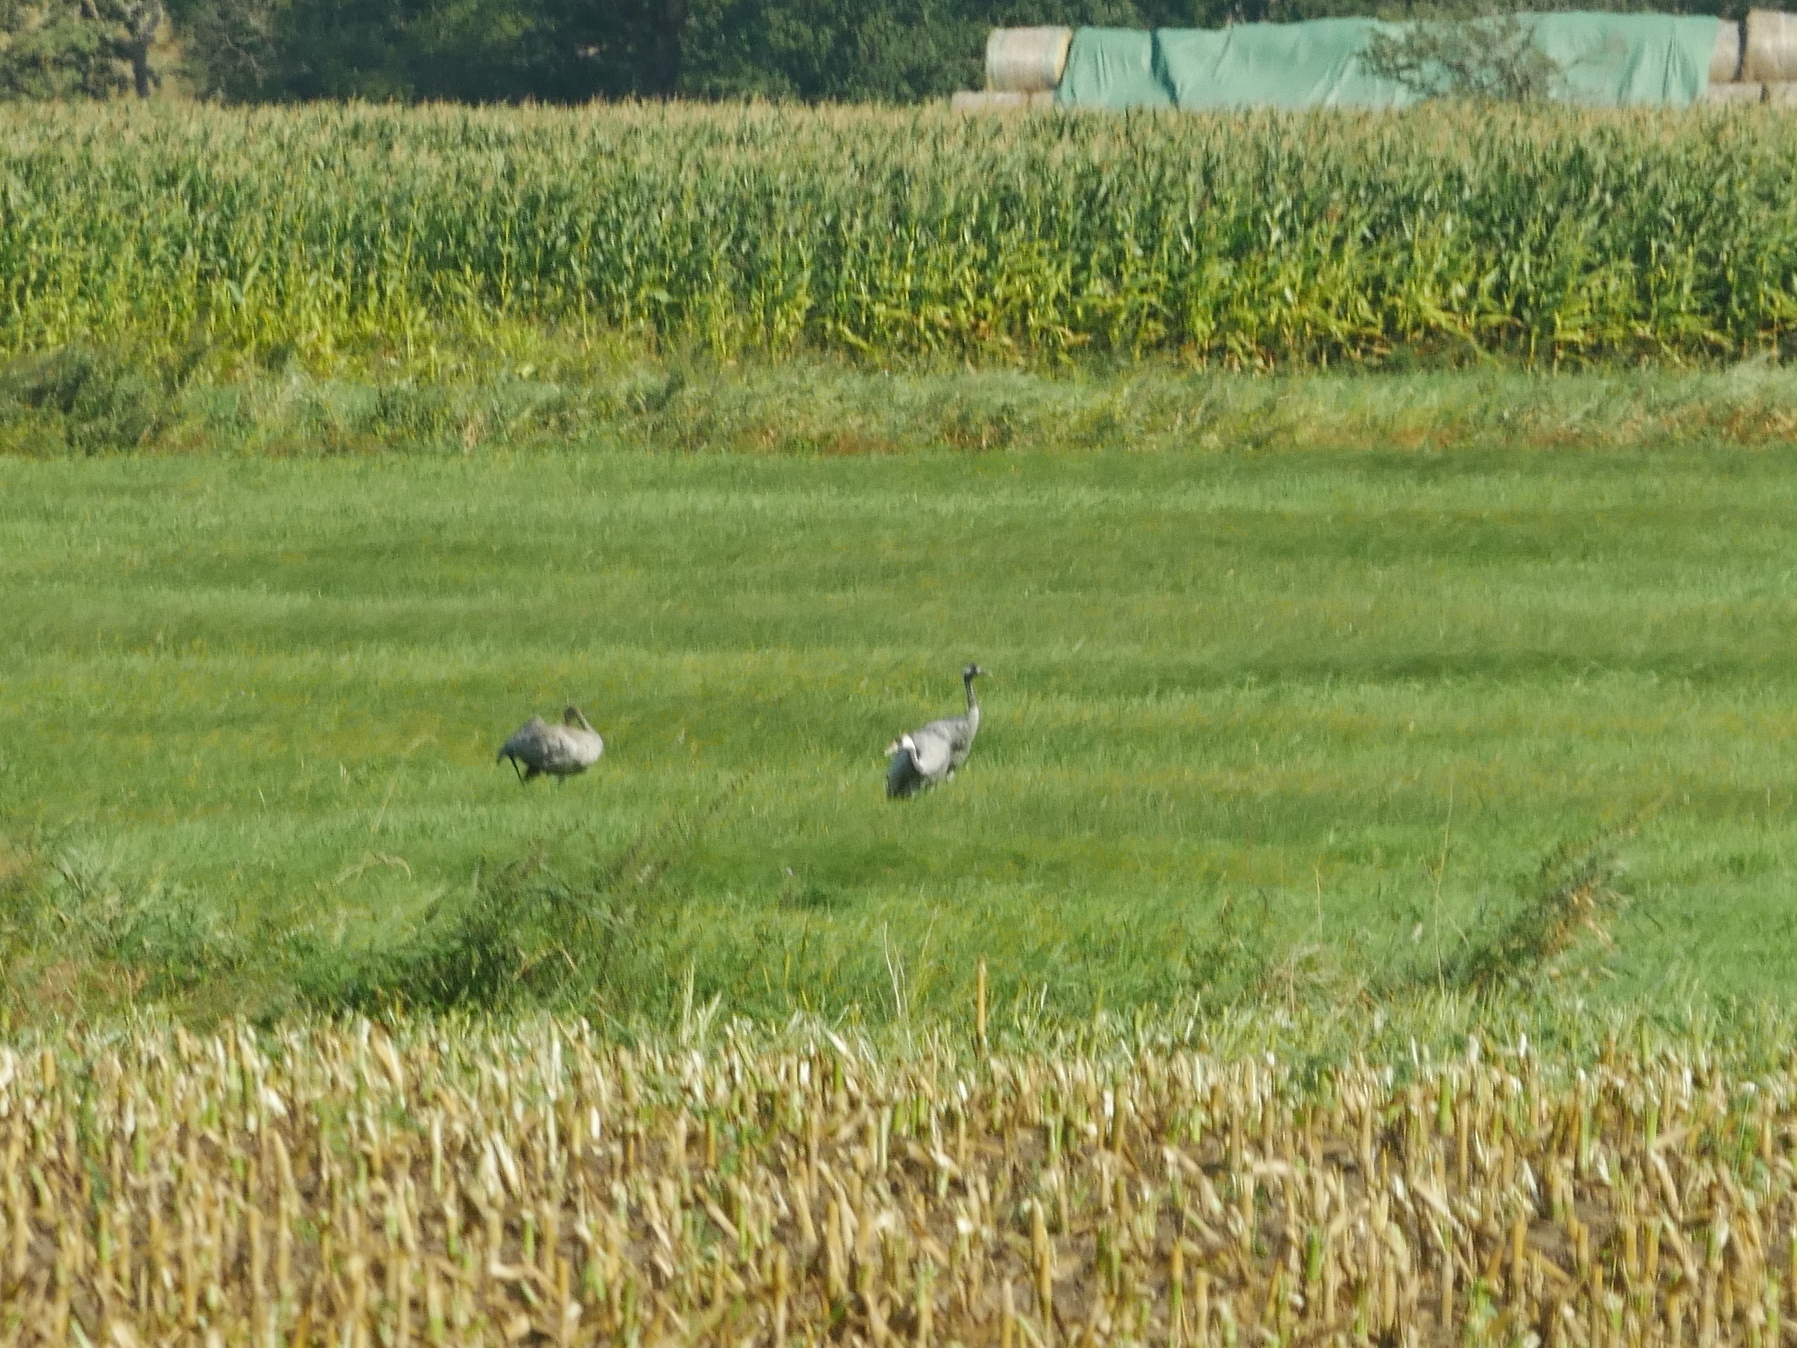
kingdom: Animalia
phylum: Chordata
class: Aves
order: Gruiformes
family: Gruidae
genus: Grus
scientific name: Grus grus
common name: Common crane
